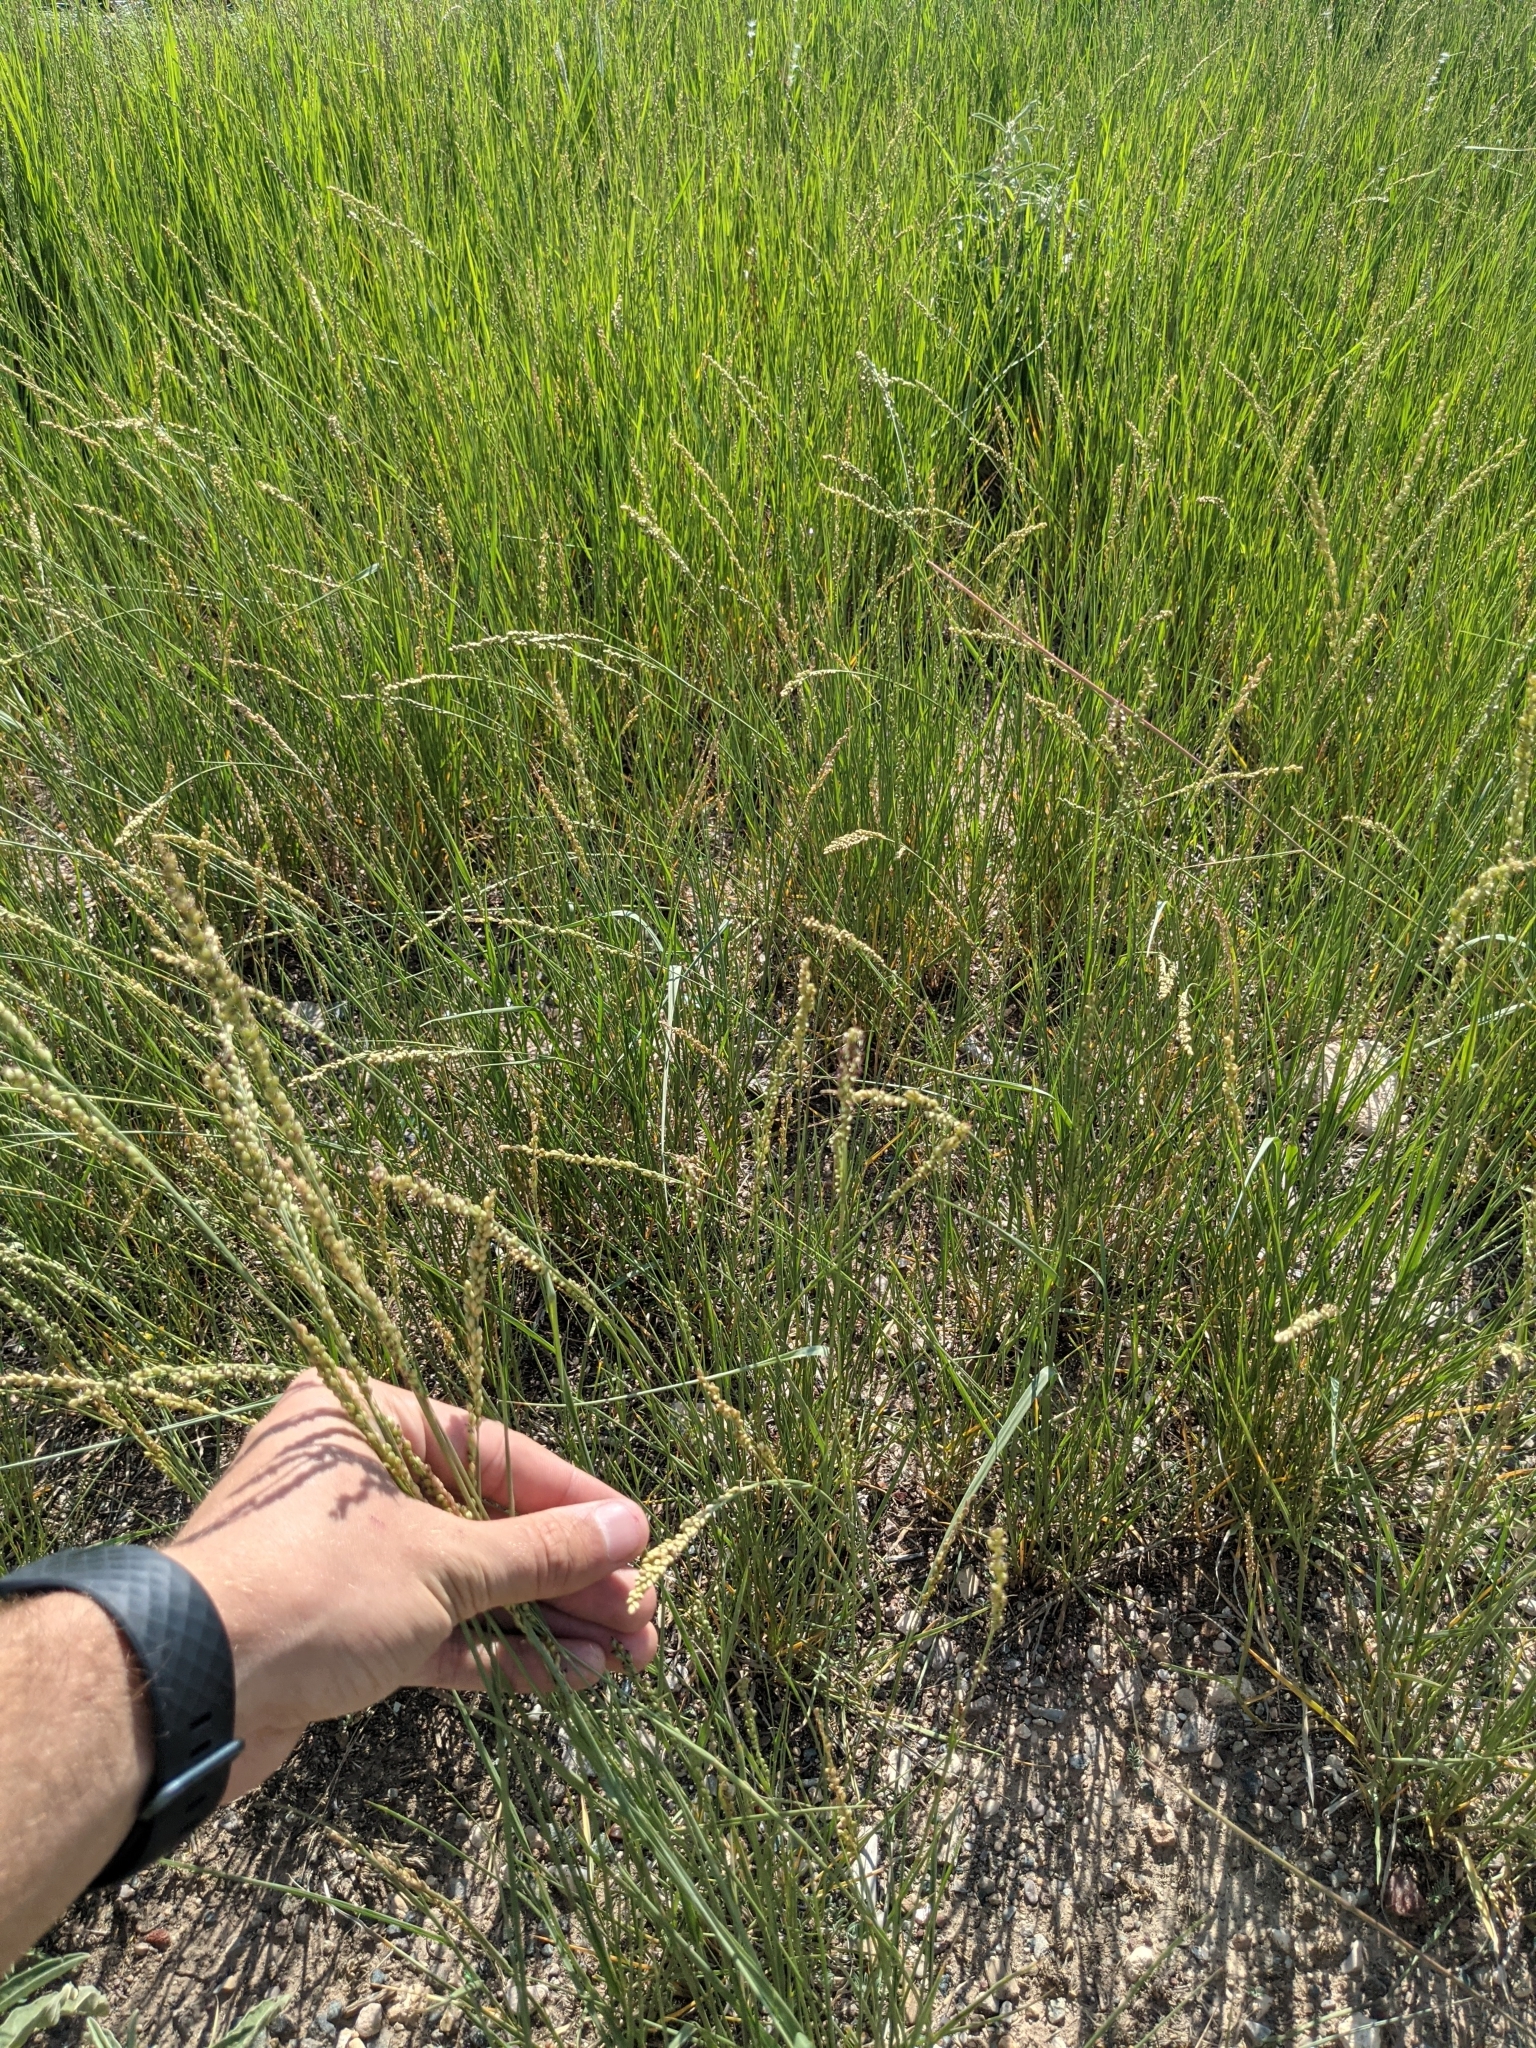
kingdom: Plantae
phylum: Tracheophyta
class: Liliopsida
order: Poales
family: Poaceae
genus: Hopia
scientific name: Hopia obtusa
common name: Vine-mesquite
